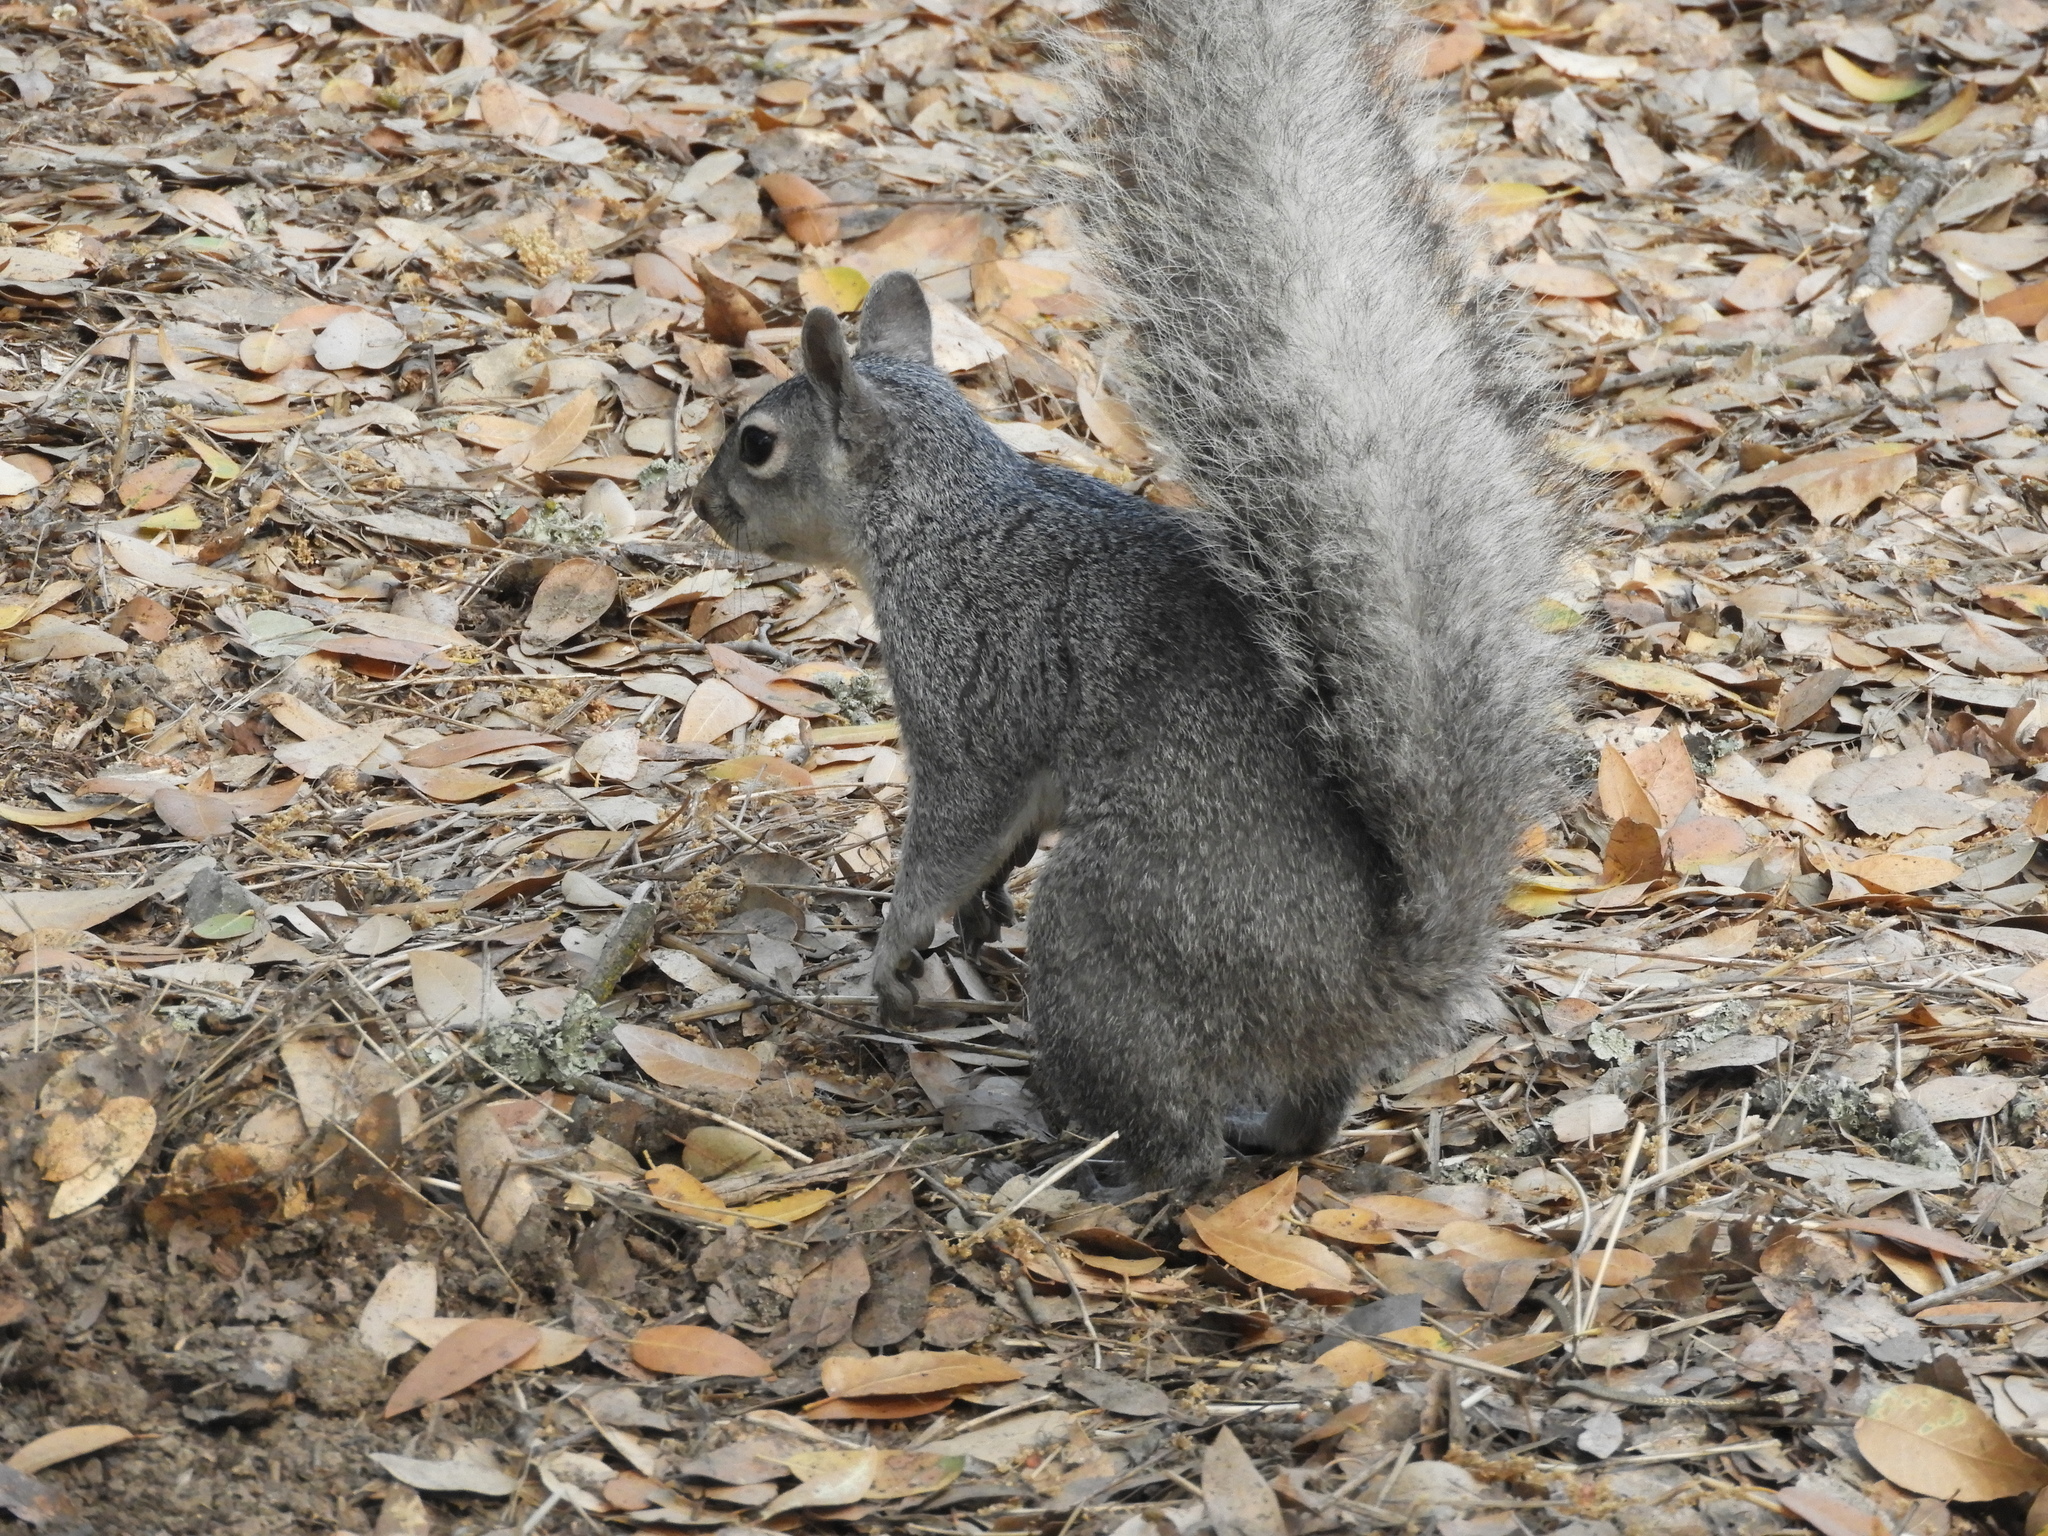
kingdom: Animalia
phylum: Chordata
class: Mammalia
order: Rodentia
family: Sciuridae
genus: Sciurus
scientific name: Sciurus griseus
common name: Western gray squirrel
